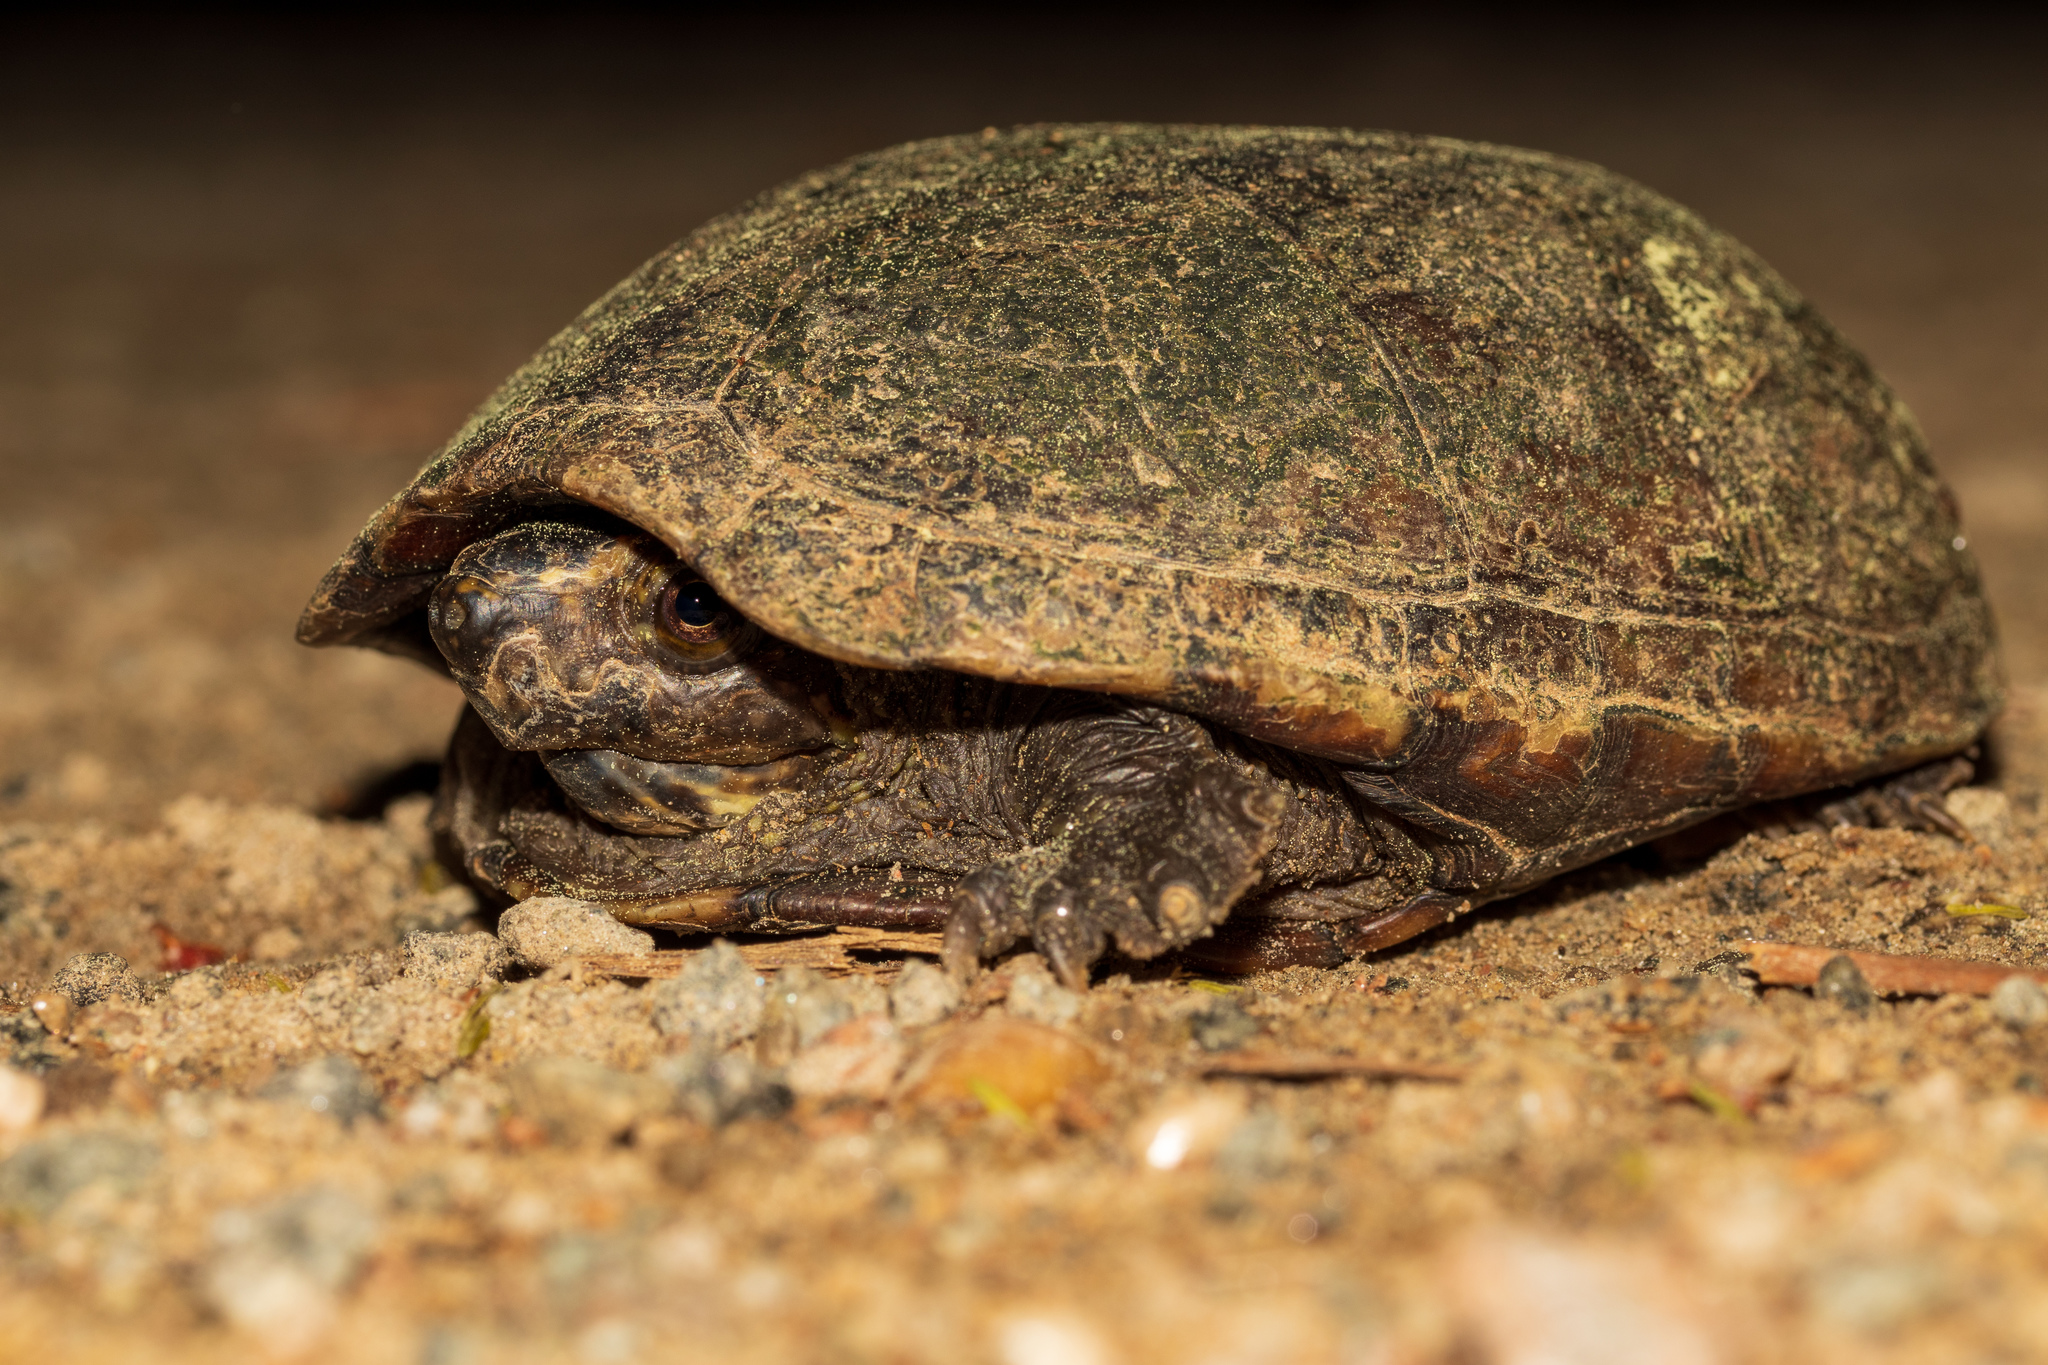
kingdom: Animalia
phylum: Chordata
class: Testudines
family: Kinosternidae
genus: Kinosternon
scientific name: Kinosternon baurii
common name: Striped mud turtle
